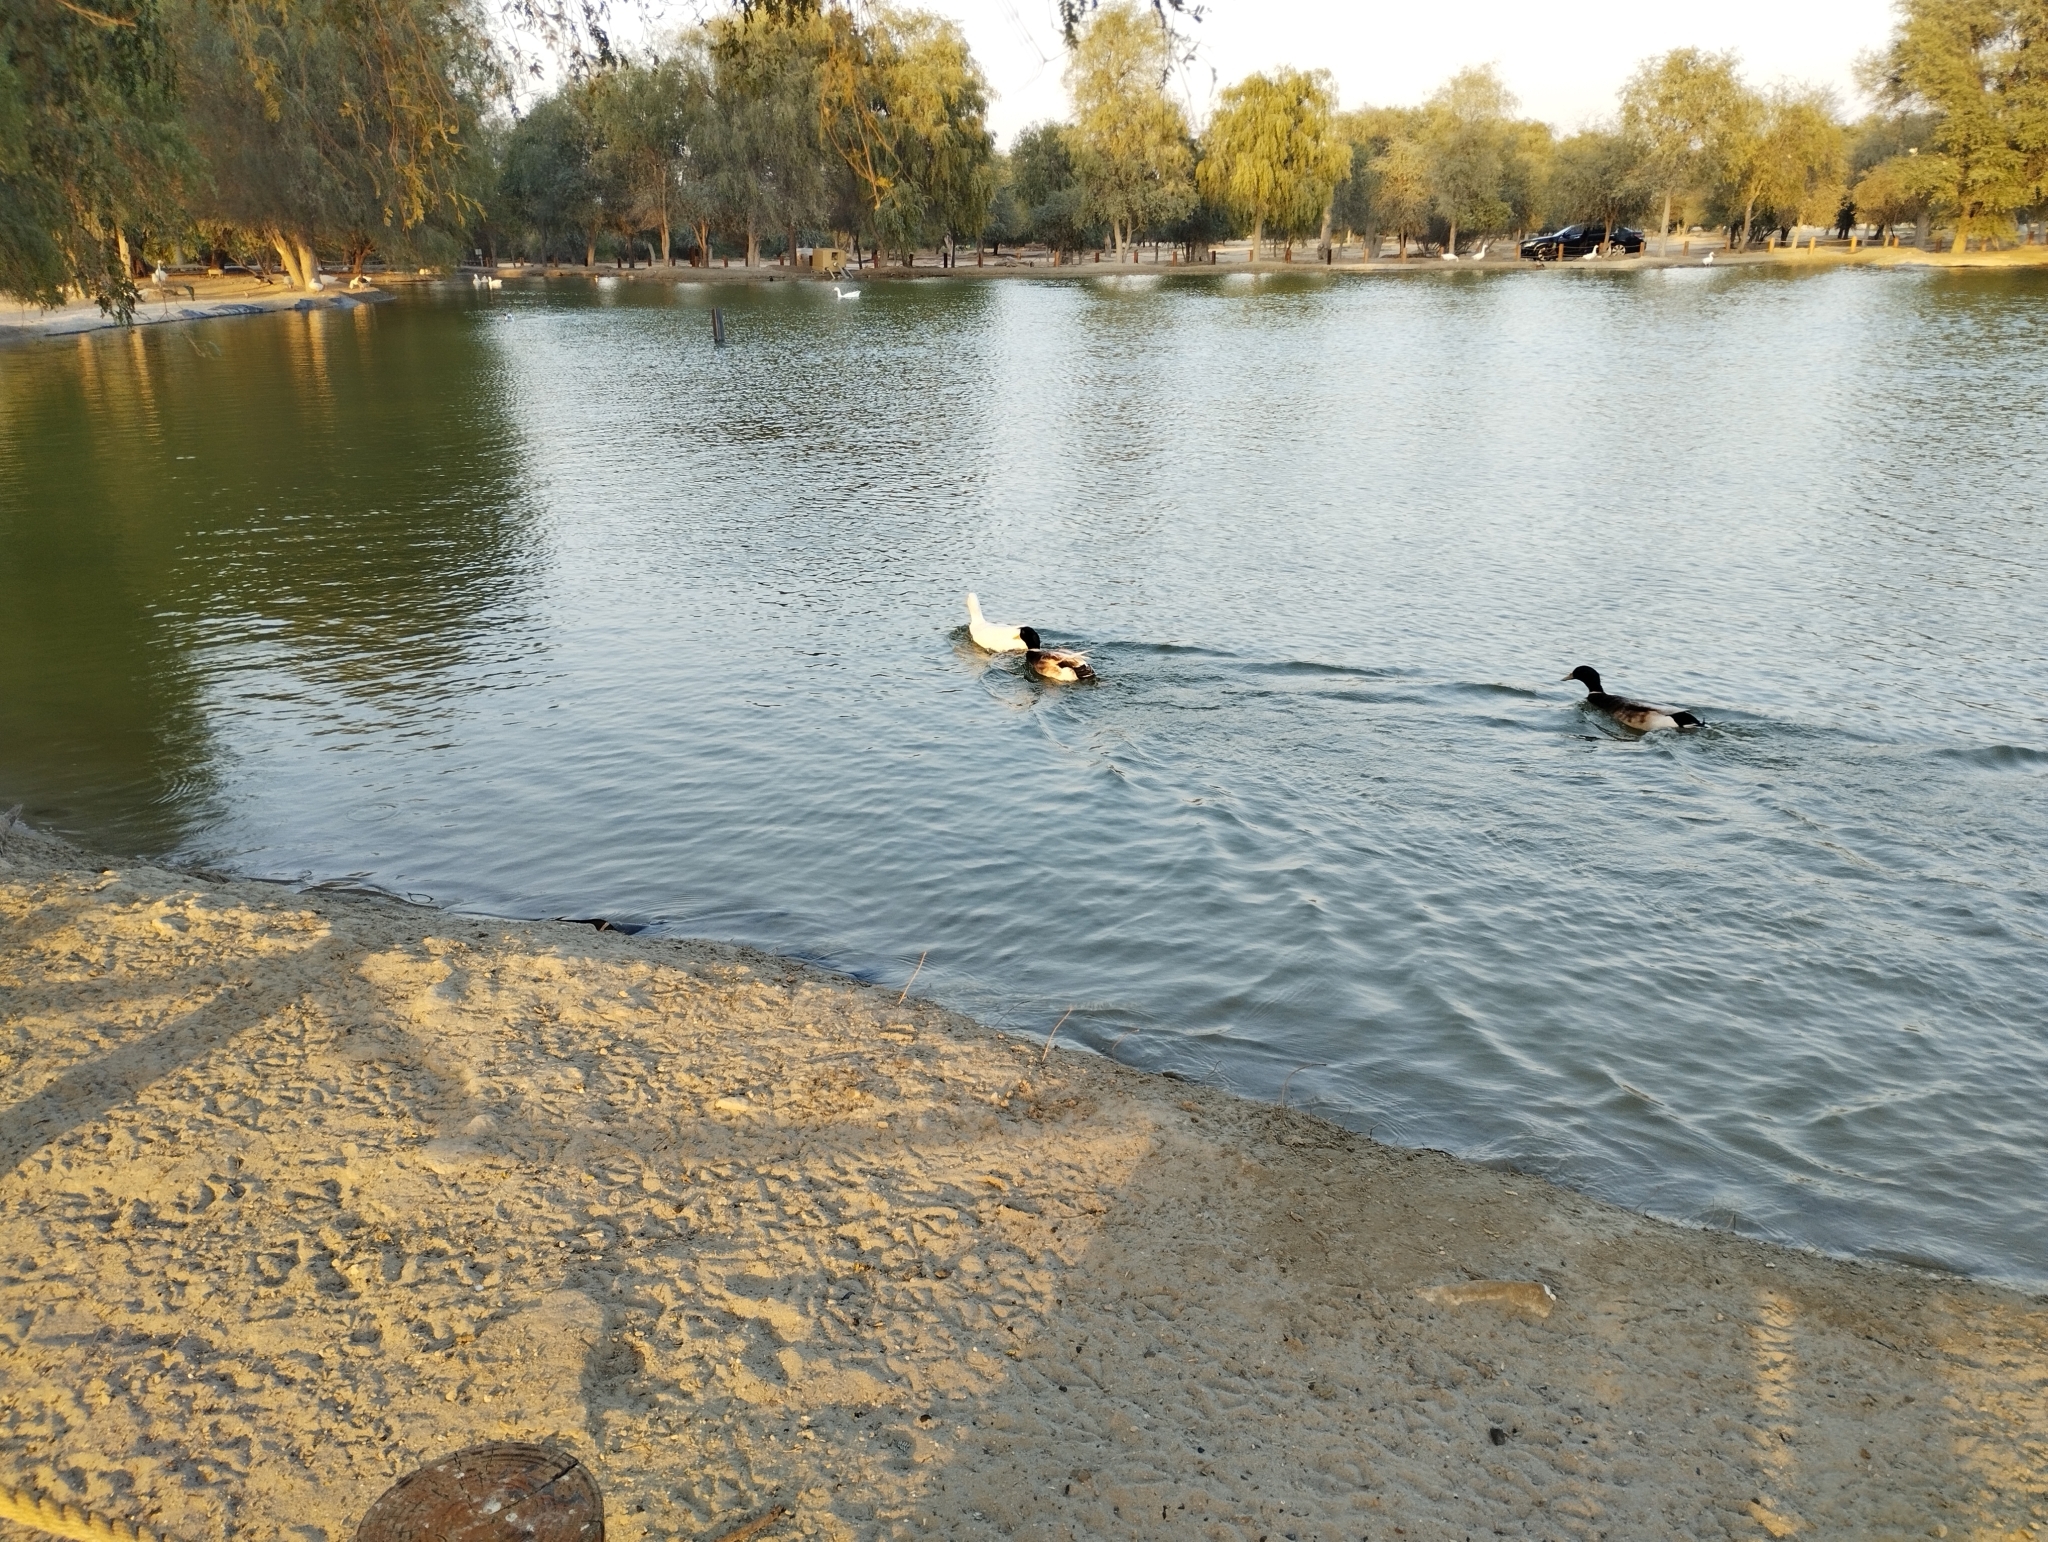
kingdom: Animalia
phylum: Chordata
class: Aves
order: Anseriformes
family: Anatidae
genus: Anas
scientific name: Anas platyrhynchos
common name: Mallard
